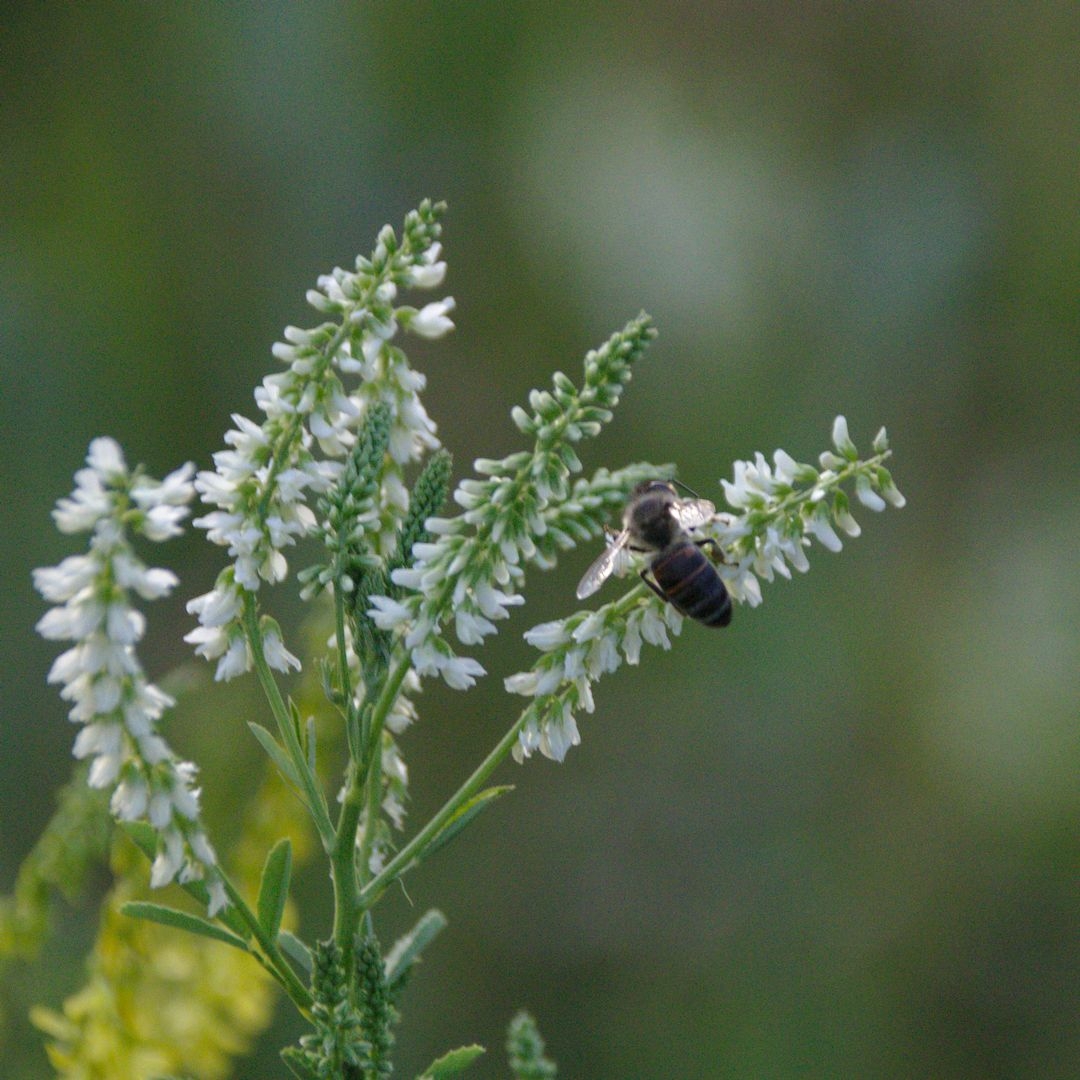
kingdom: Animalia
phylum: Arthropoda
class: Insecta
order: Hymenoptera
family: Apidae
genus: Apis
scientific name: Apis mellifera
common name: Honey bee
